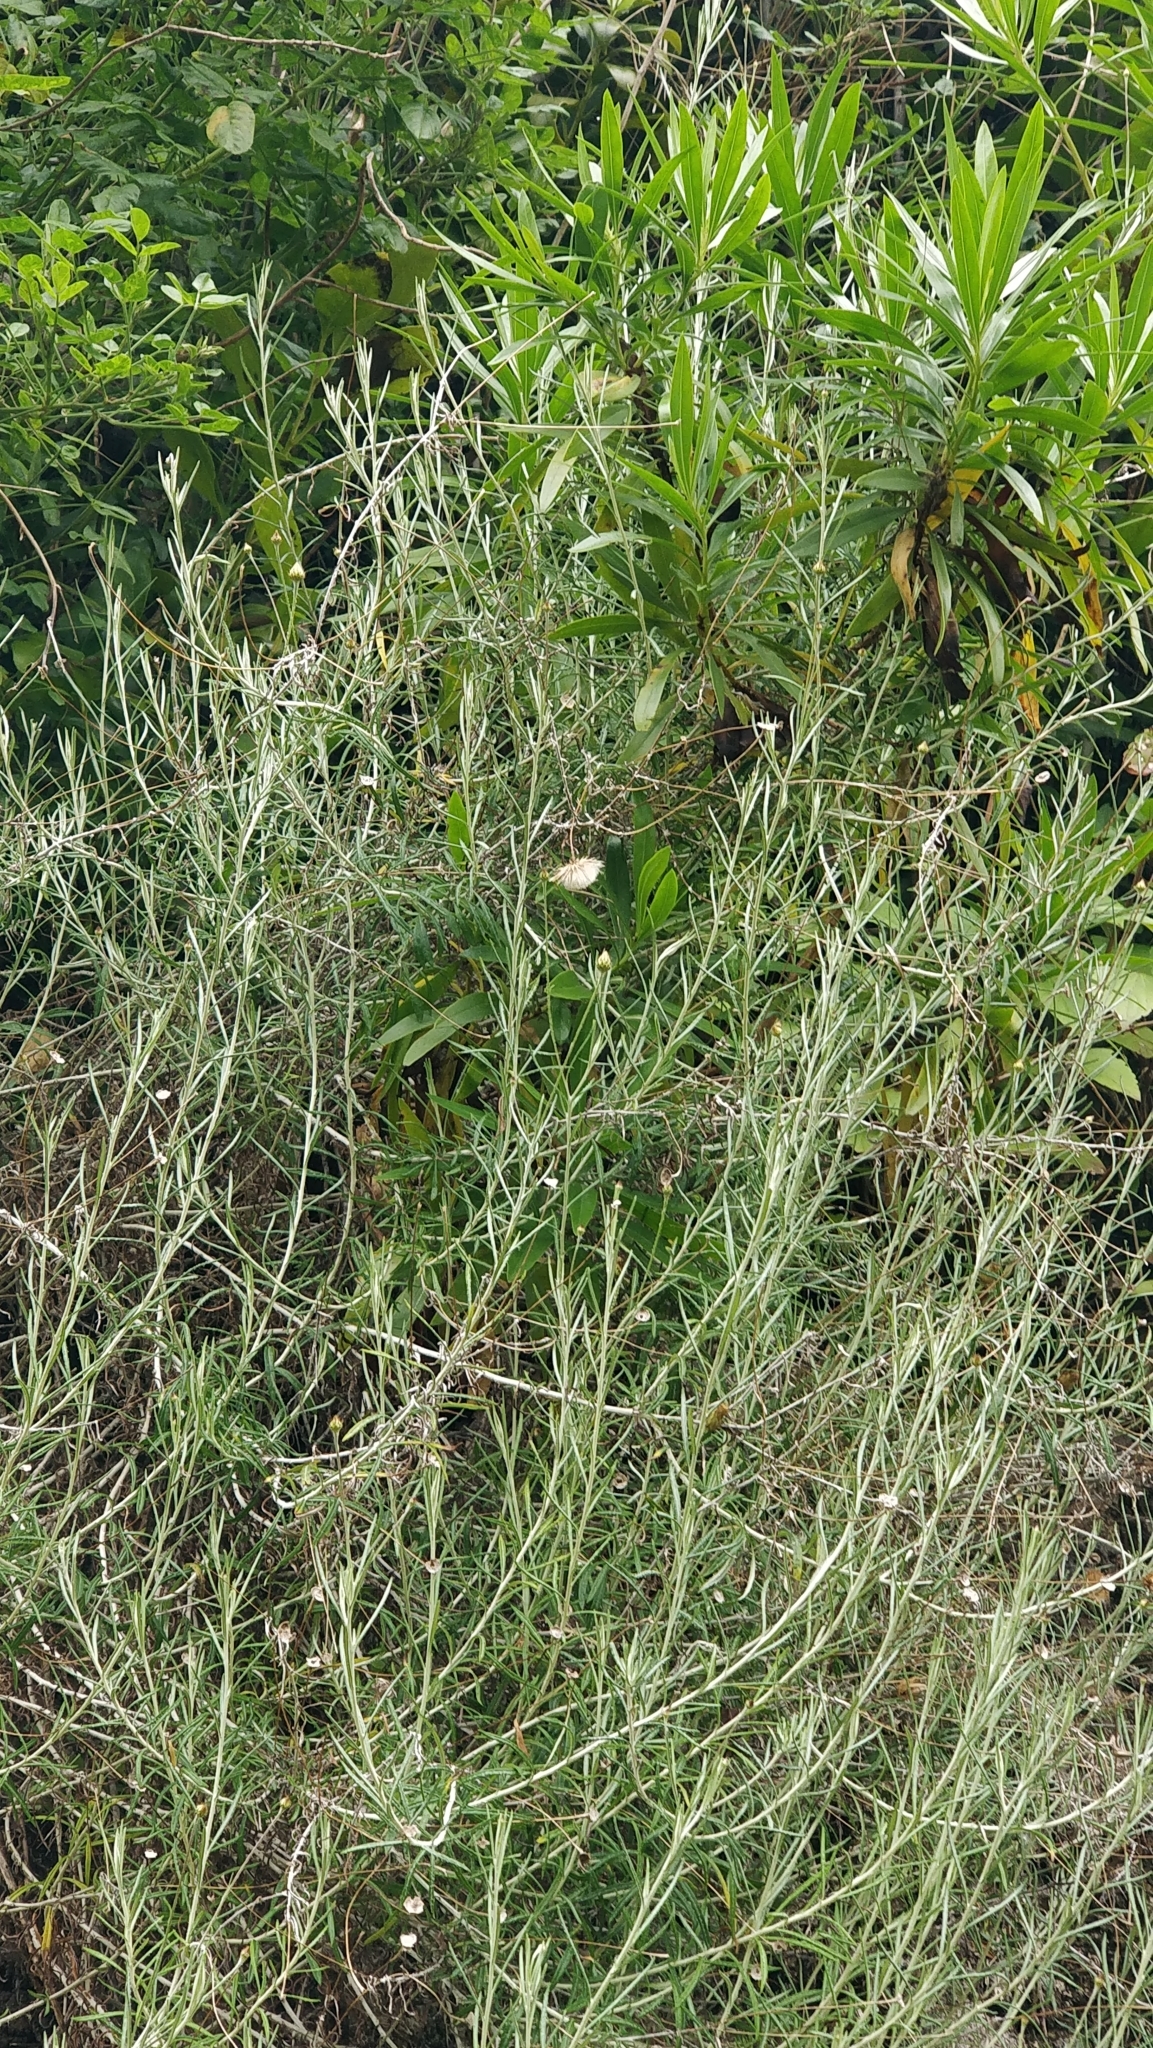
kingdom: Plantae
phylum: Tracheophyta
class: Magnoliopsida
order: Asterales
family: Asteraceae
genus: Phagnalon
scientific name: Phagnalon saxatile
